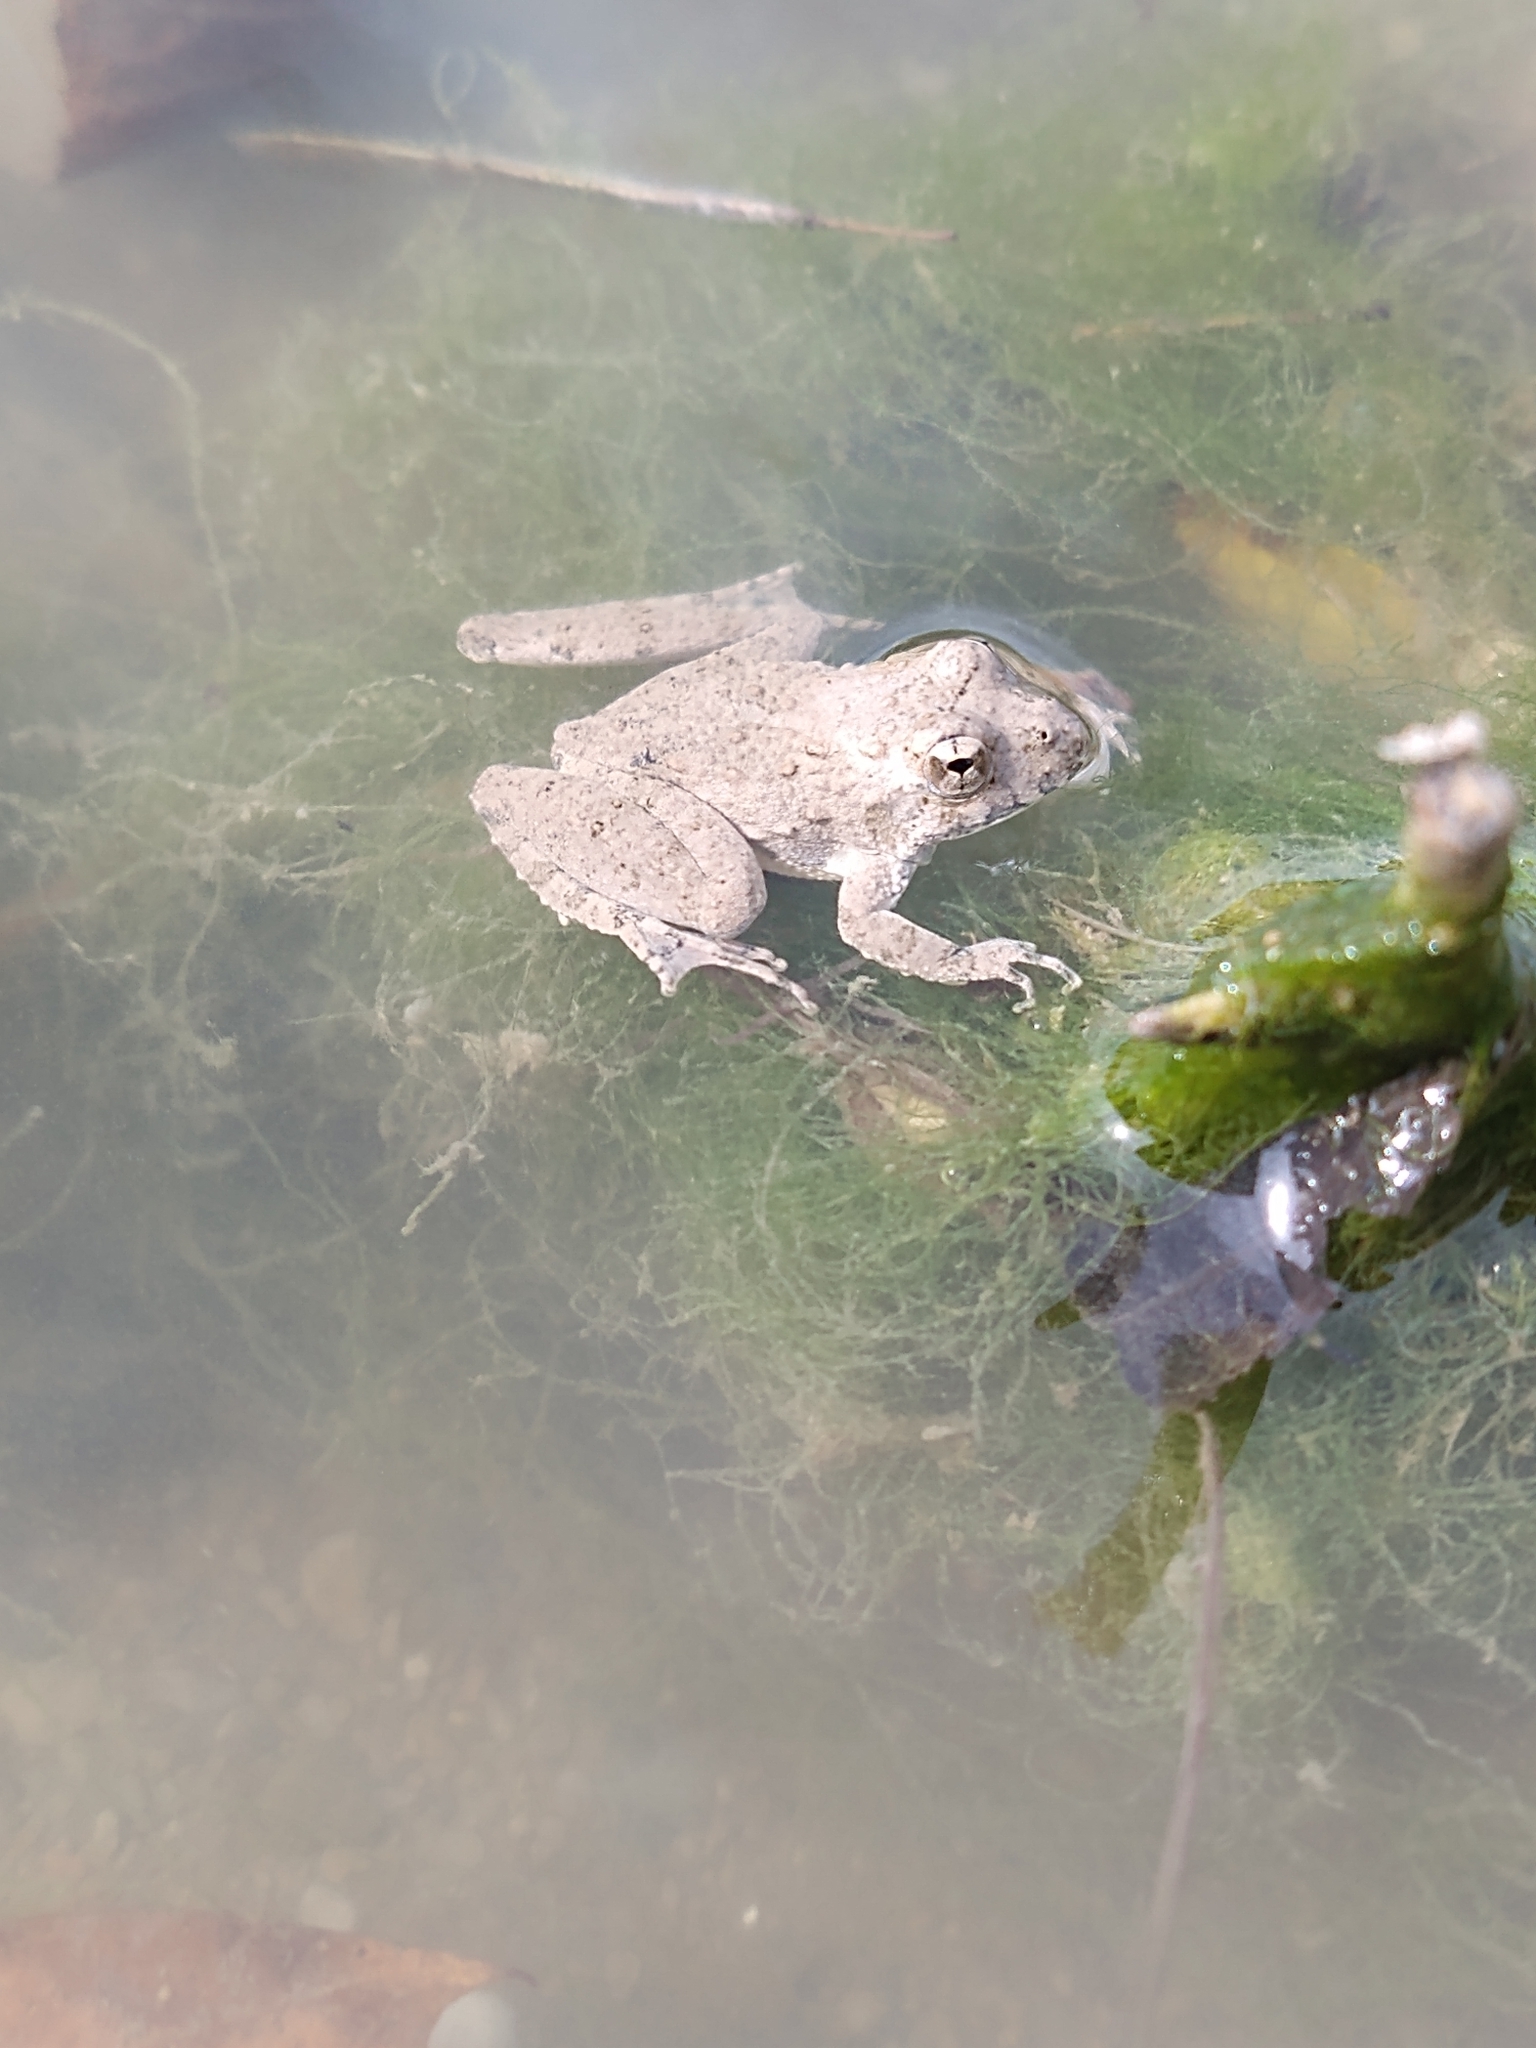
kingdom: Animalia
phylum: Chordata
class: Amphibia
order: Anura
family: Hylidae
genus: Acris
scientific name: Acris blanchardi
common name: Blanchard's cricket frog
